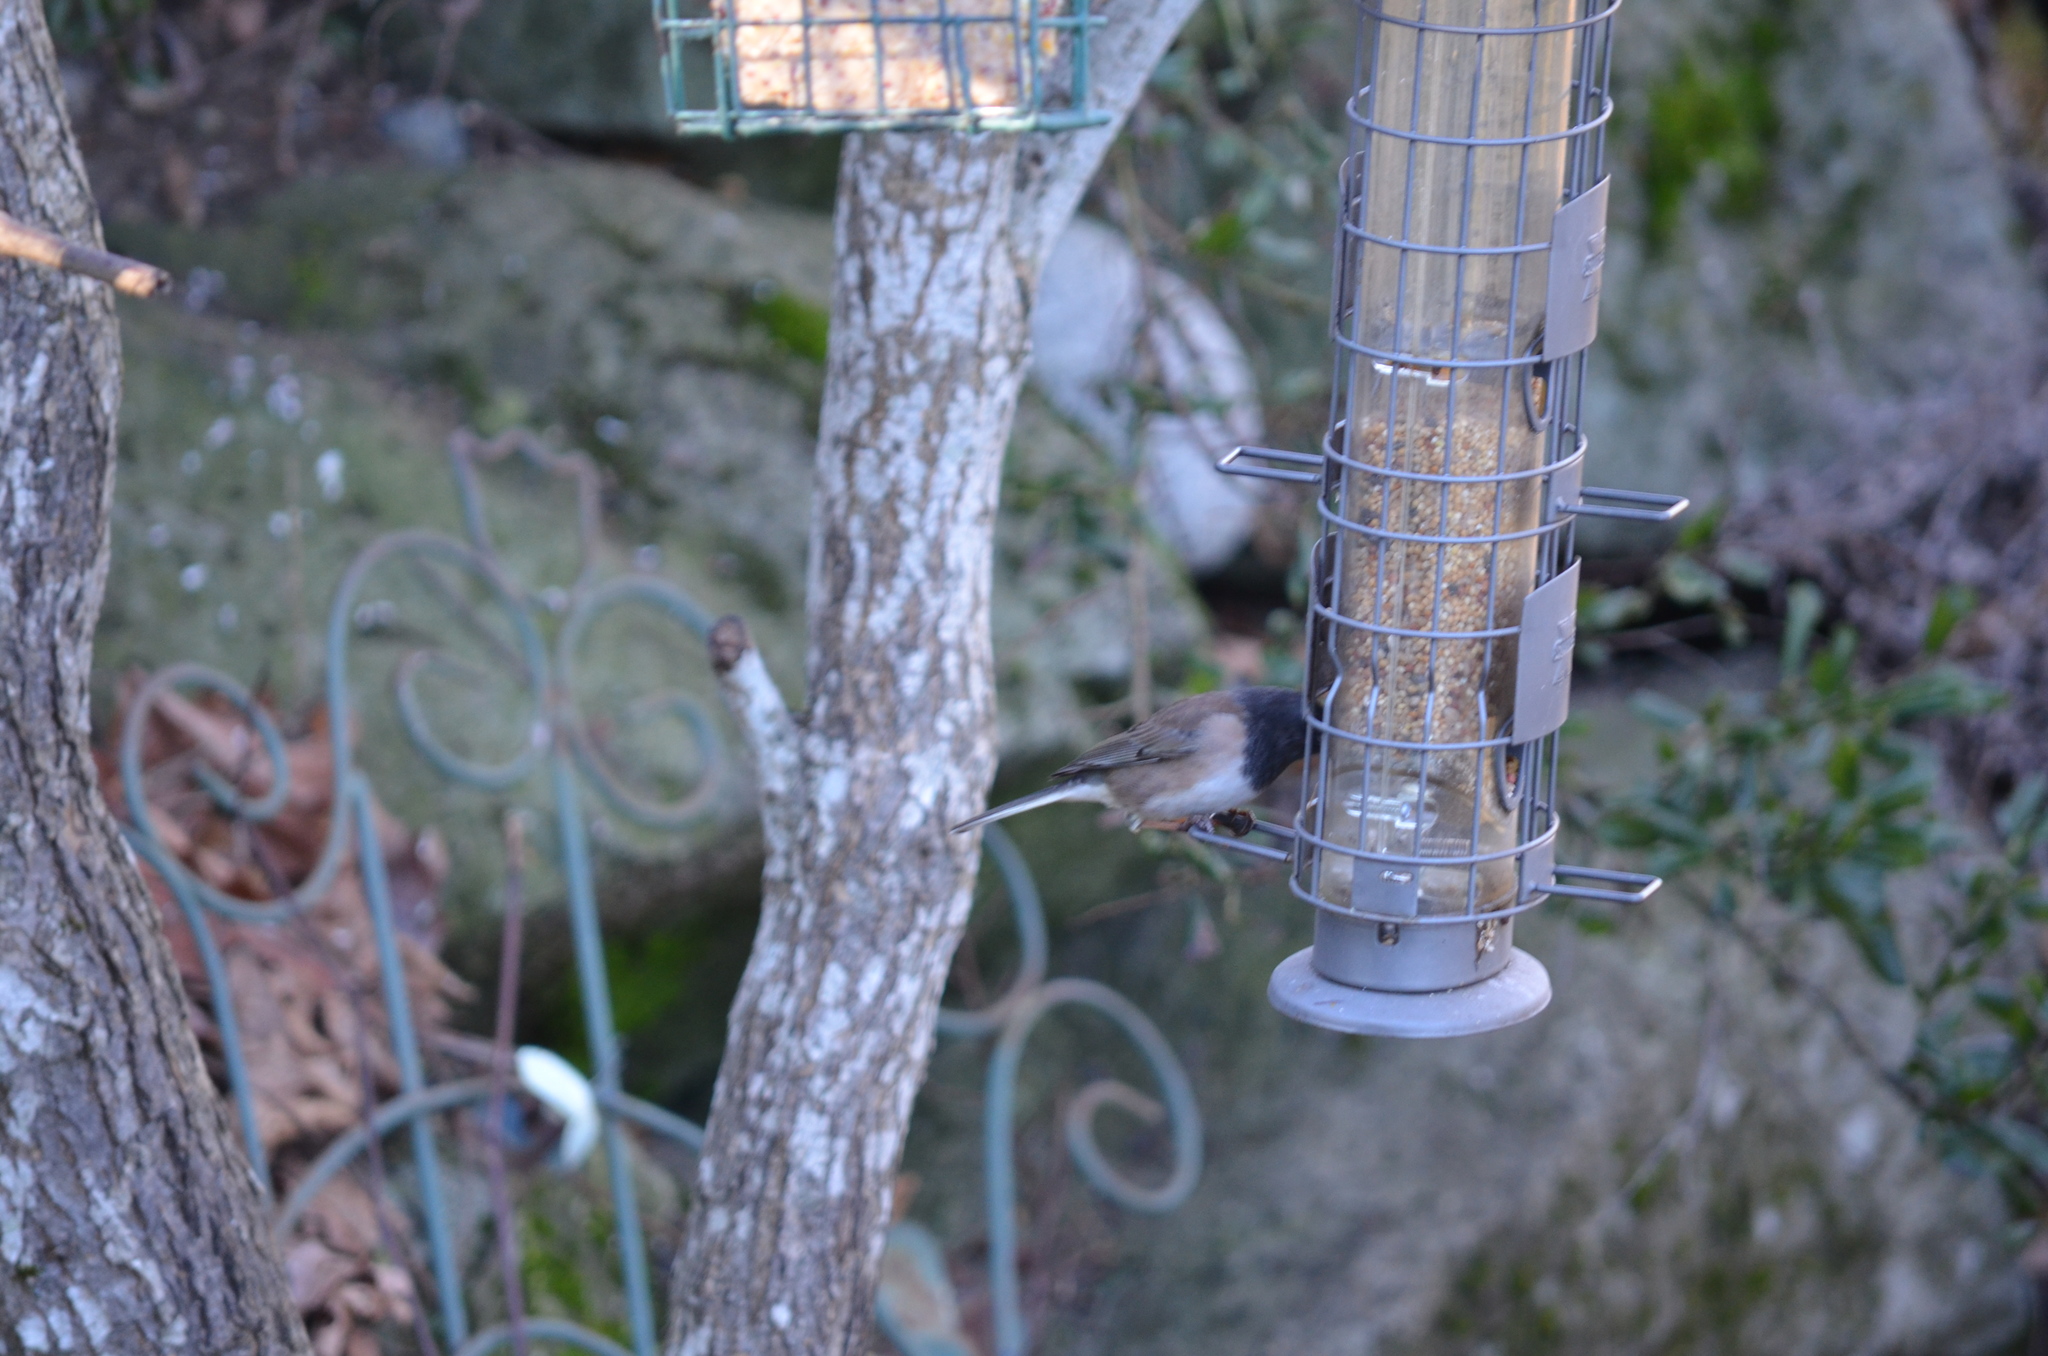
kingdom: Animalia
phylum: Chordata
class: Aves
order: Passeriformes
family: Passerellidae
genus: Junco
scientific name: Junco hyemalis
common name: Dark-eyed junco
